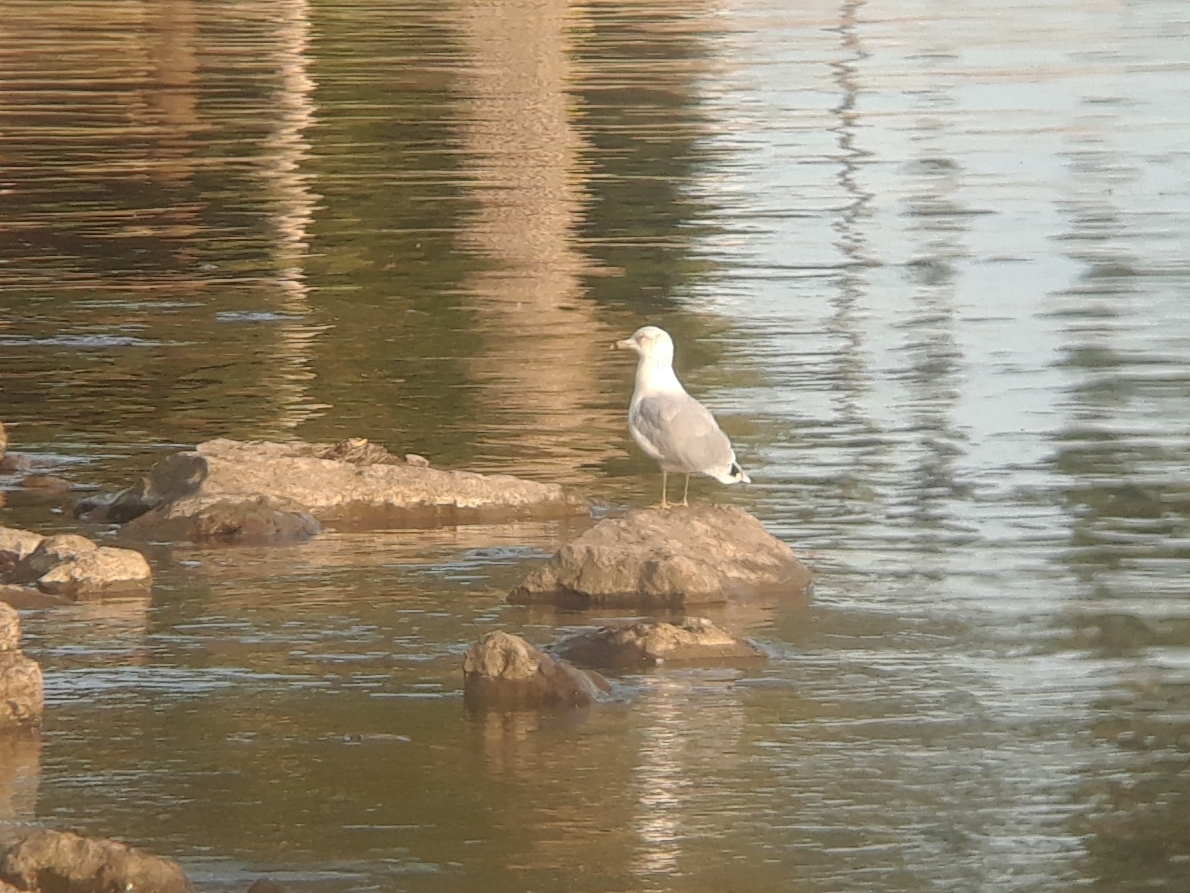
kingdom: Animalia
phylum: Chordata
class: Aves
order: Charadriiformes
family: Laridae
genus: Larus
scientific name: Larus delawarensis
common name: Ring-billed gull
